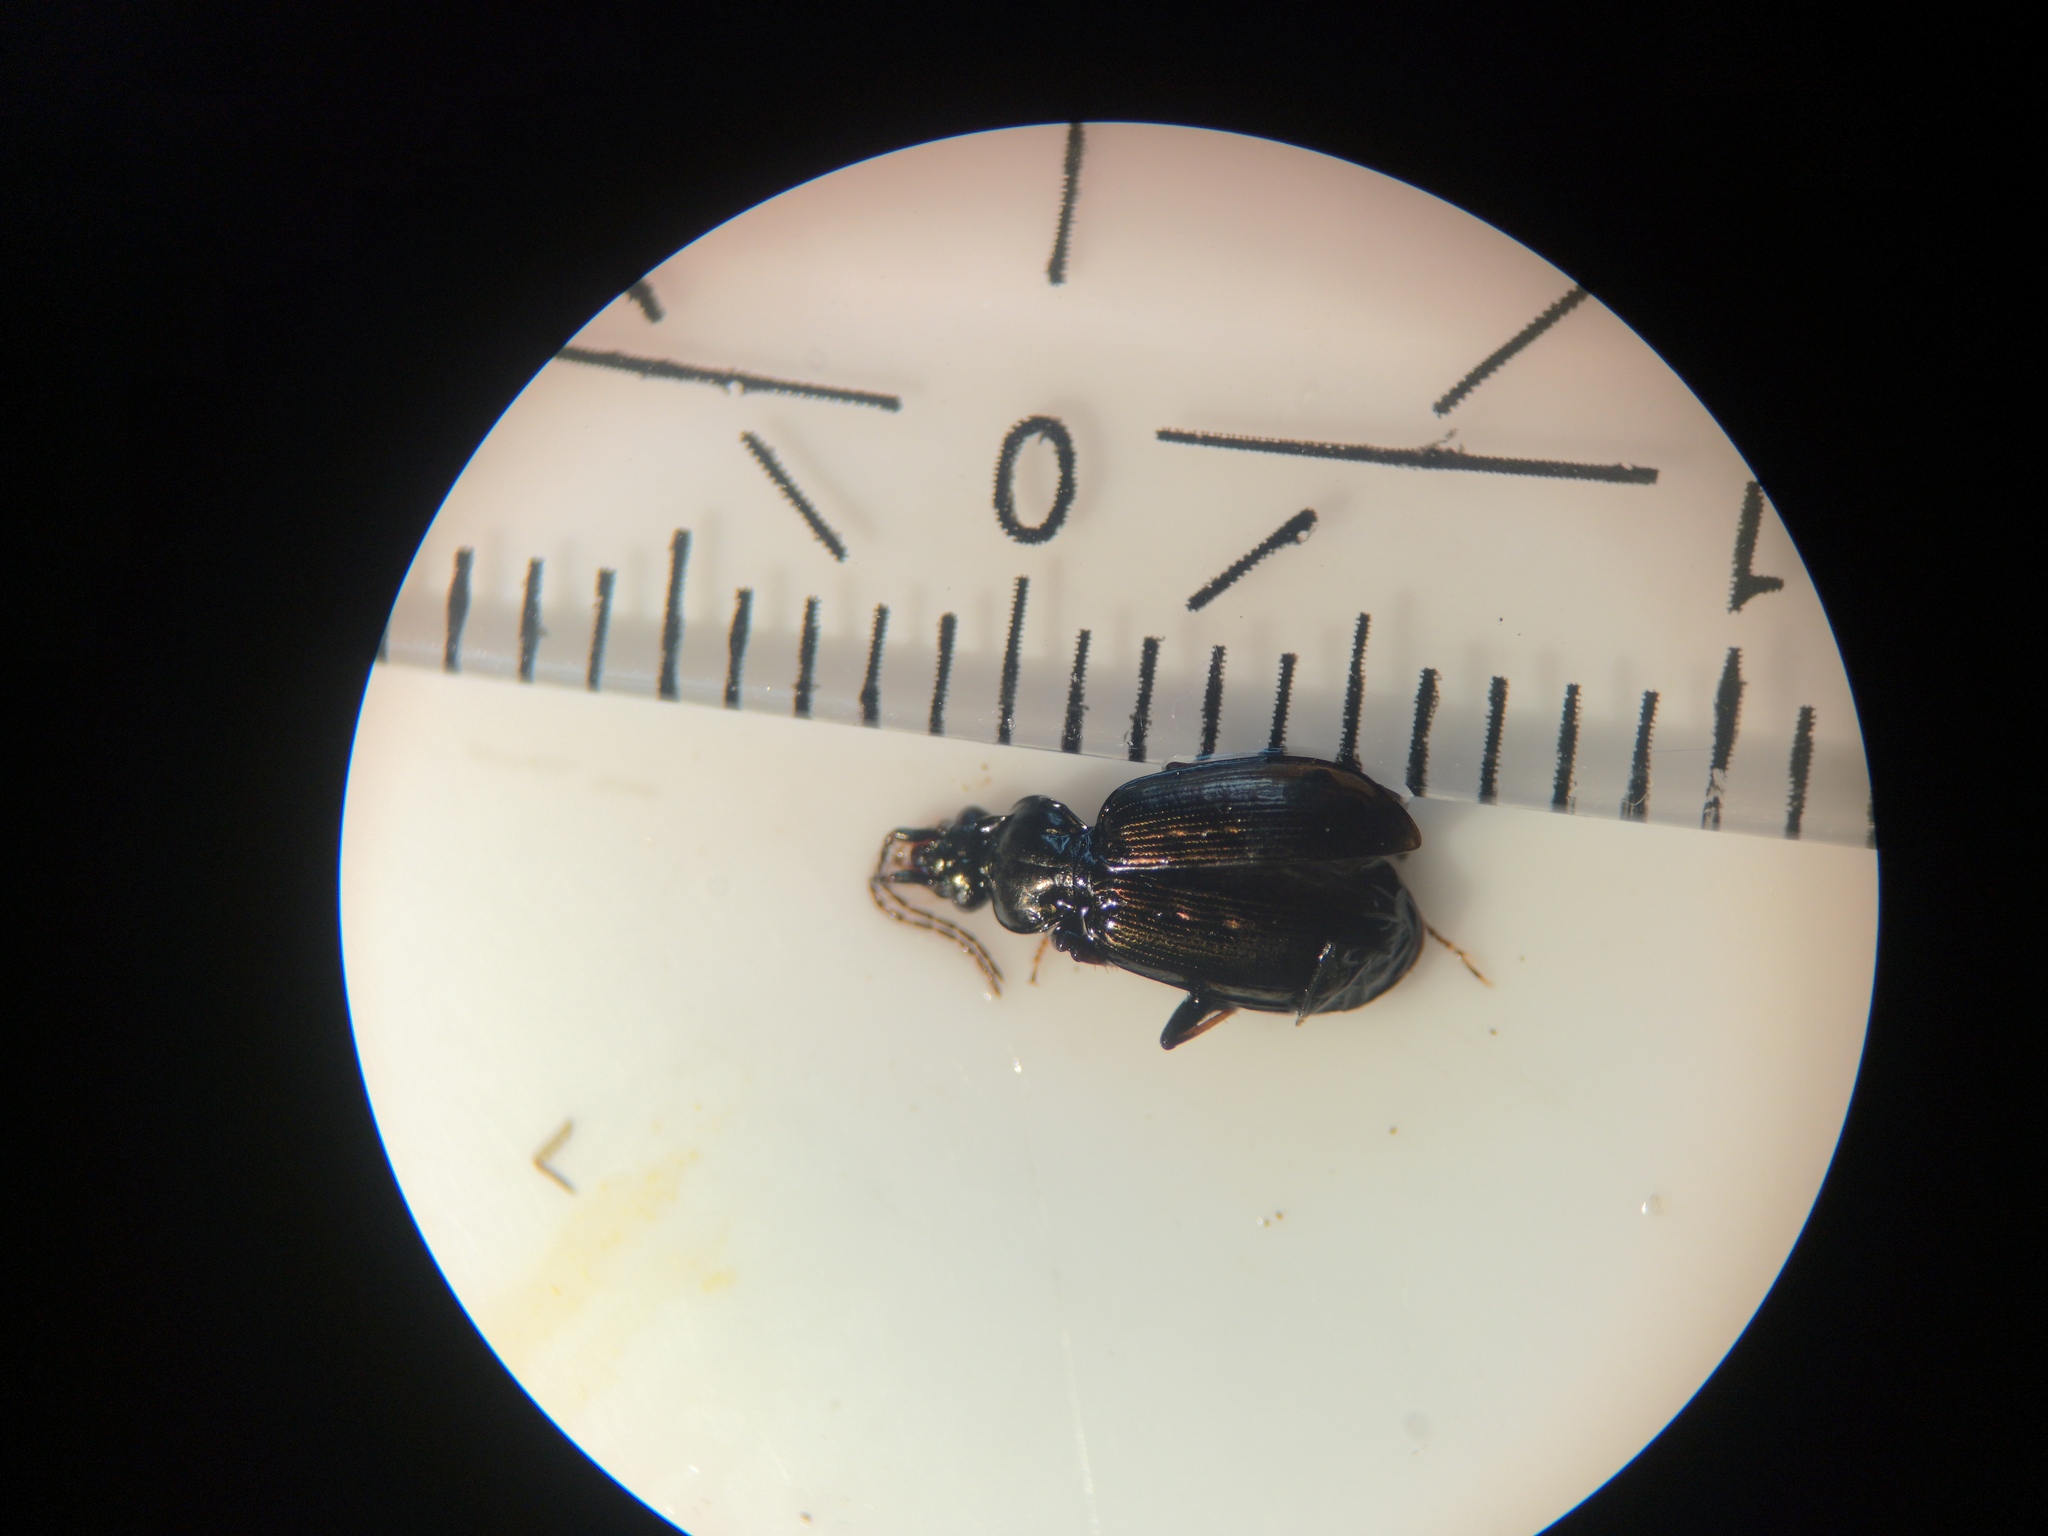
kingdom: Animalia
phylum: Arthropoda
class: Insecta
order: Coleoptera
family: Carabidae
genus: Loricera
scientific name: Loricera pilicornis
